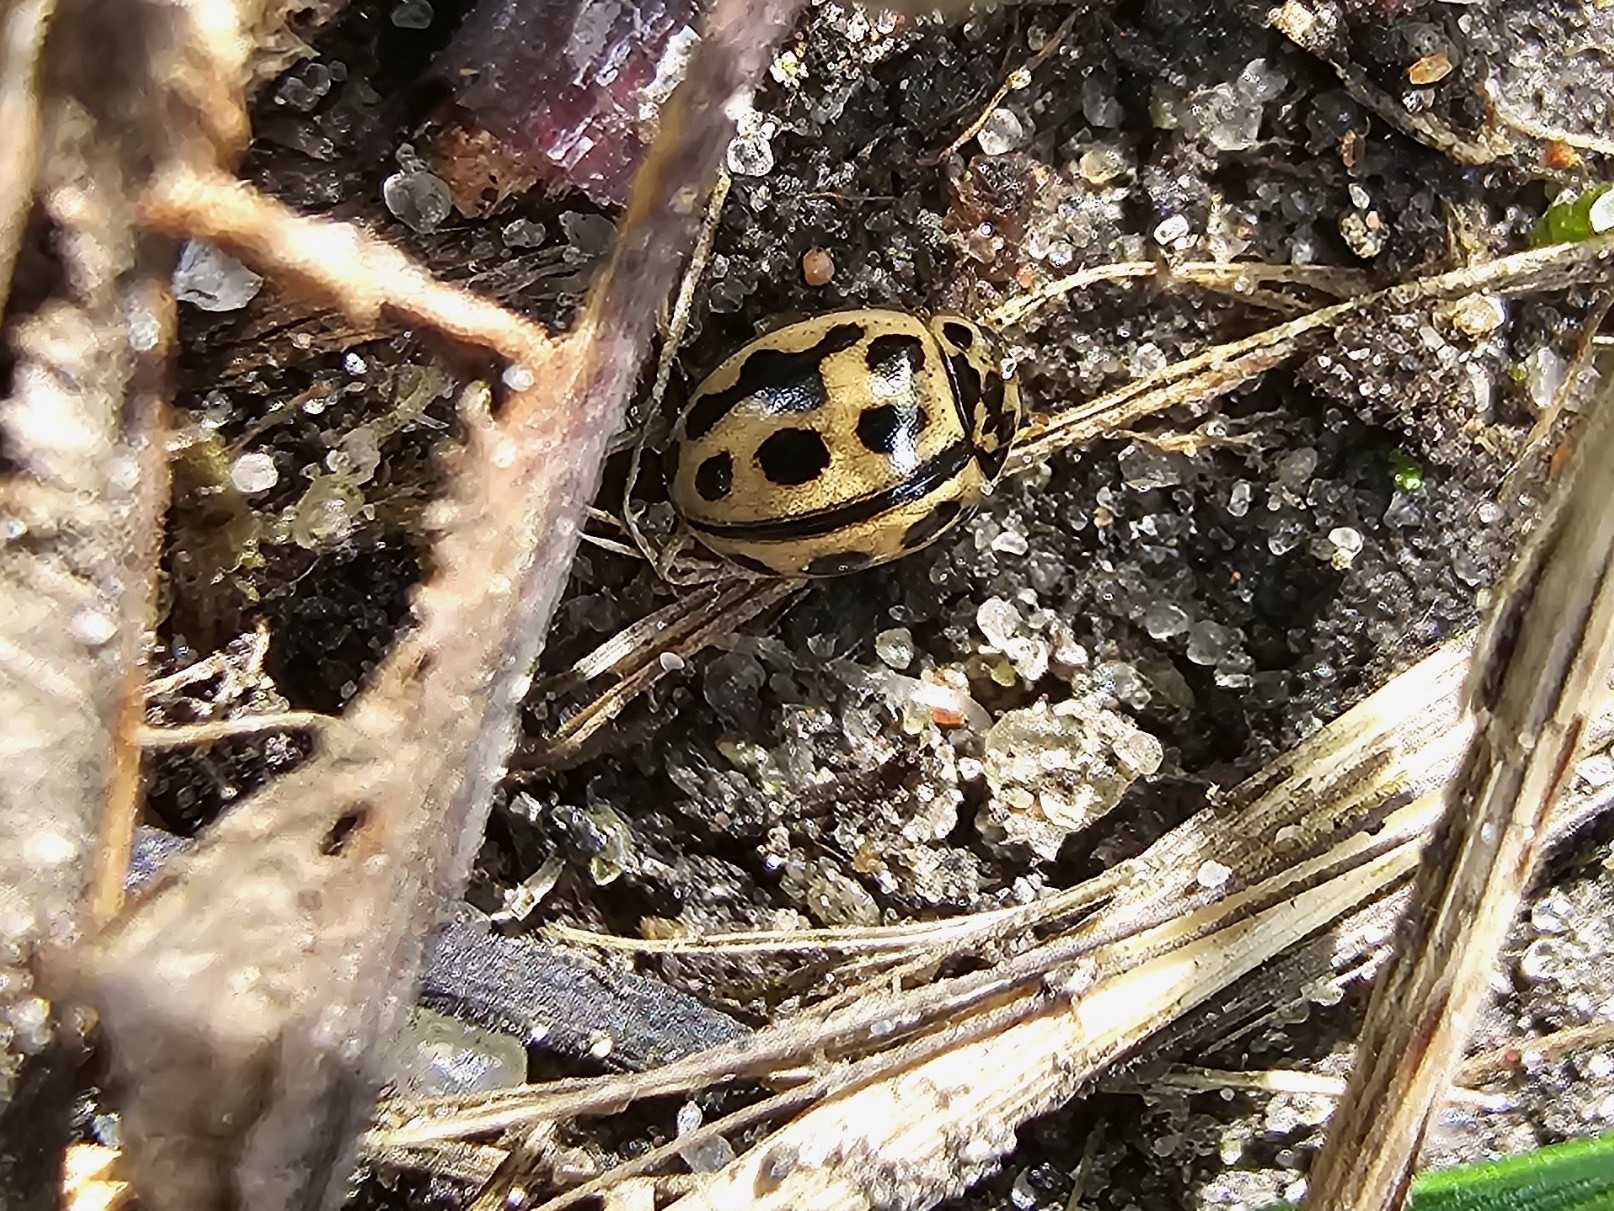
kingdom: Animalia
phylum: Arthropoda
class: Insecta
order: Coleoptera
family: Coccinellidae
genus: Tytthaspis
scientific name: Tytthaspis sedecimpunctata
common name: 16-spot ladybird
